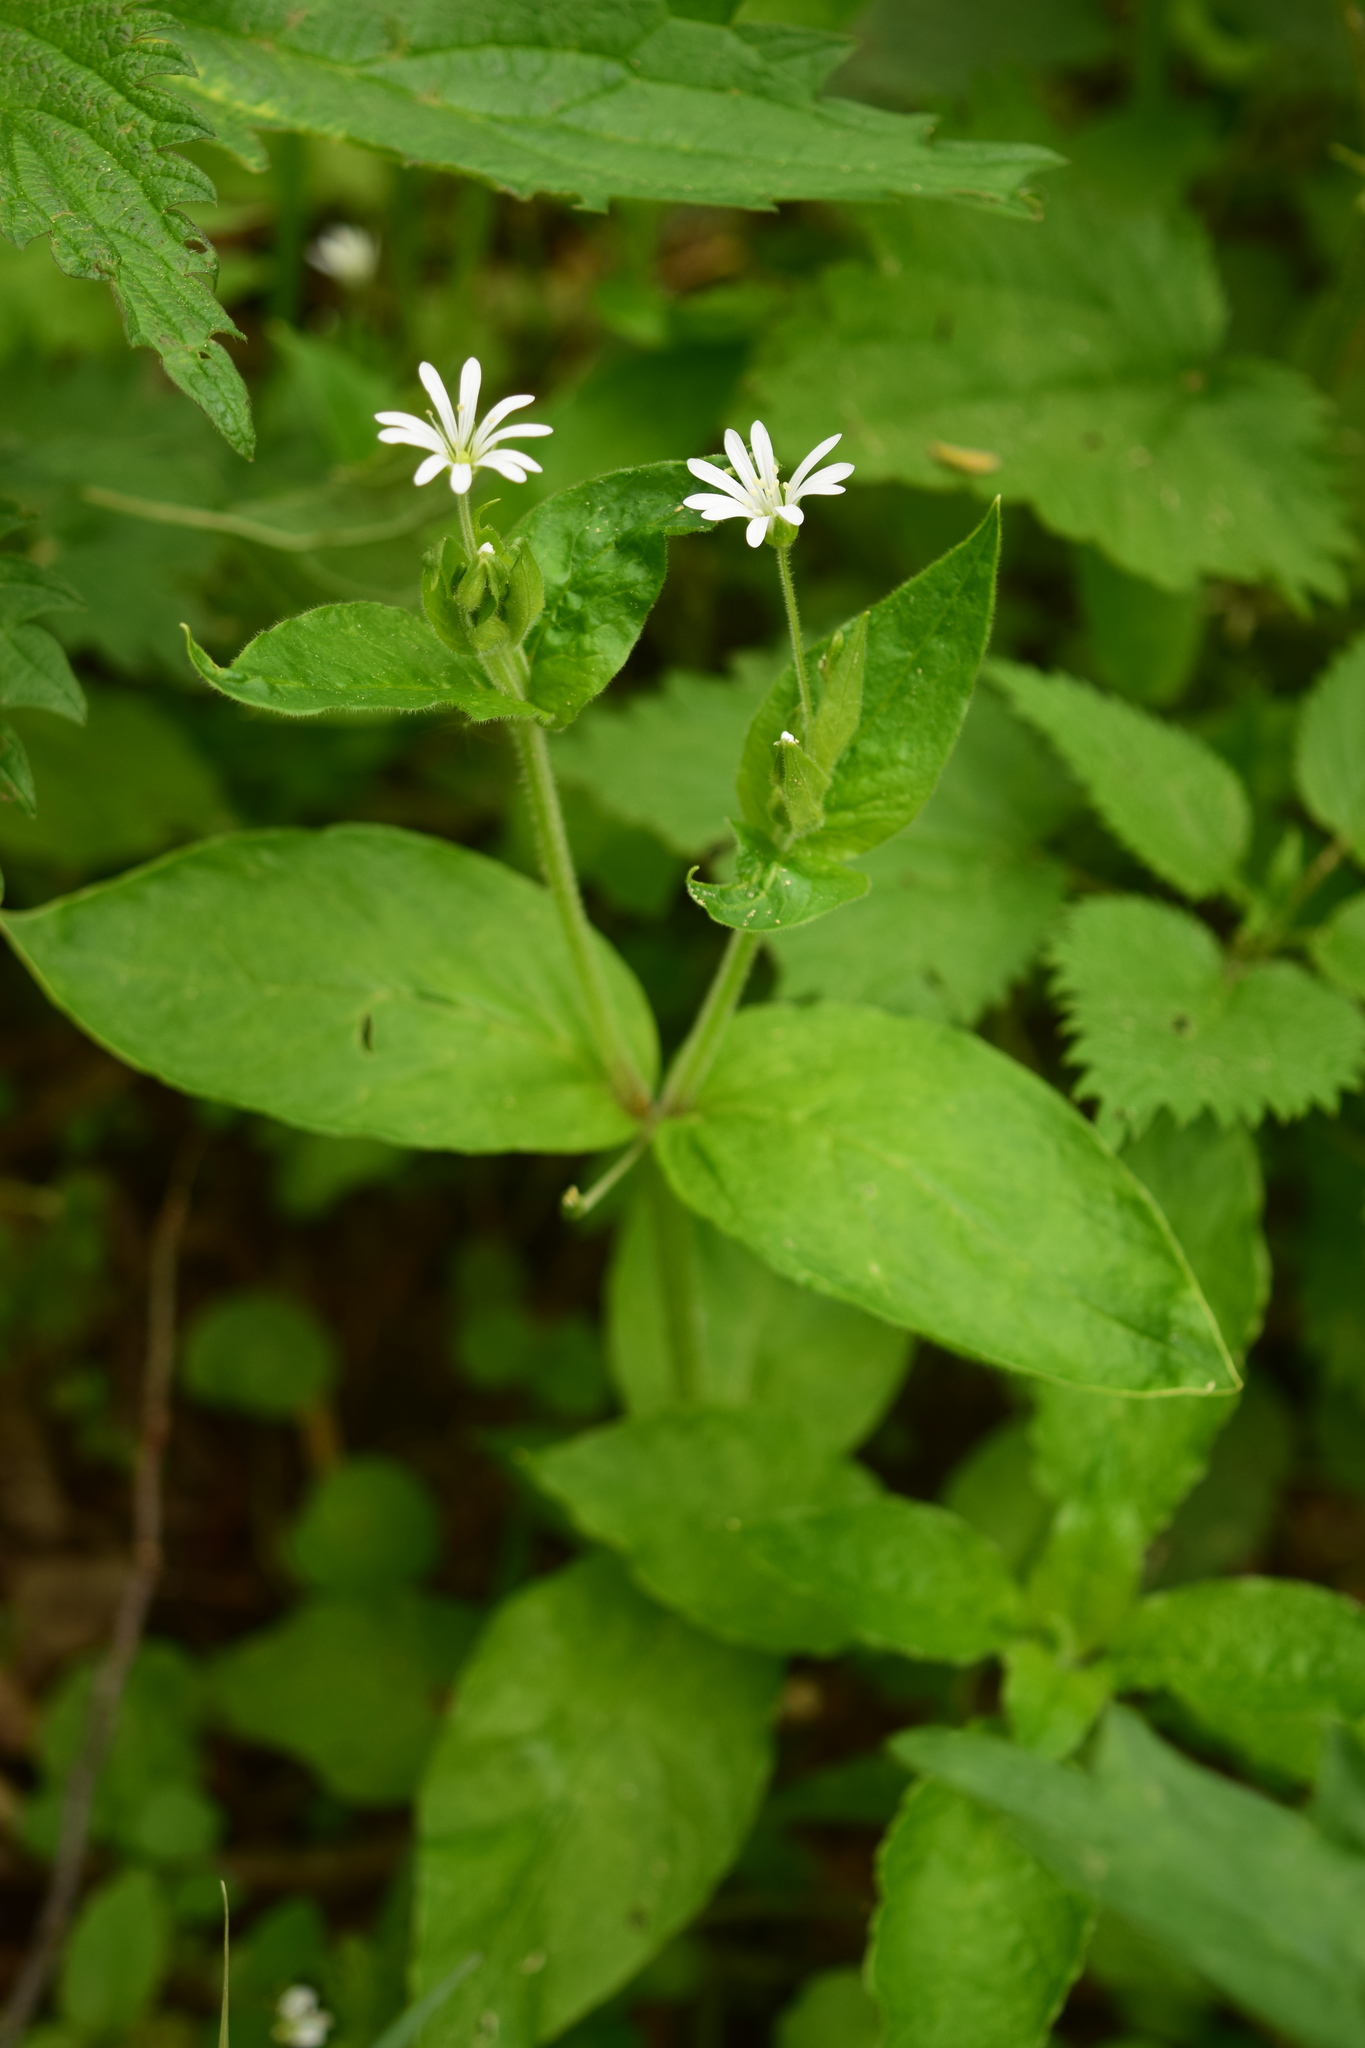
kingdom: Plantae
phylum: Tracheophyta
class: Magnoliopsida
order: Caryophyllales
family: Caryophyllaceae
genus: Stellaria
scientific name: Stellaria nemorum
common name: Wood stitchwort
